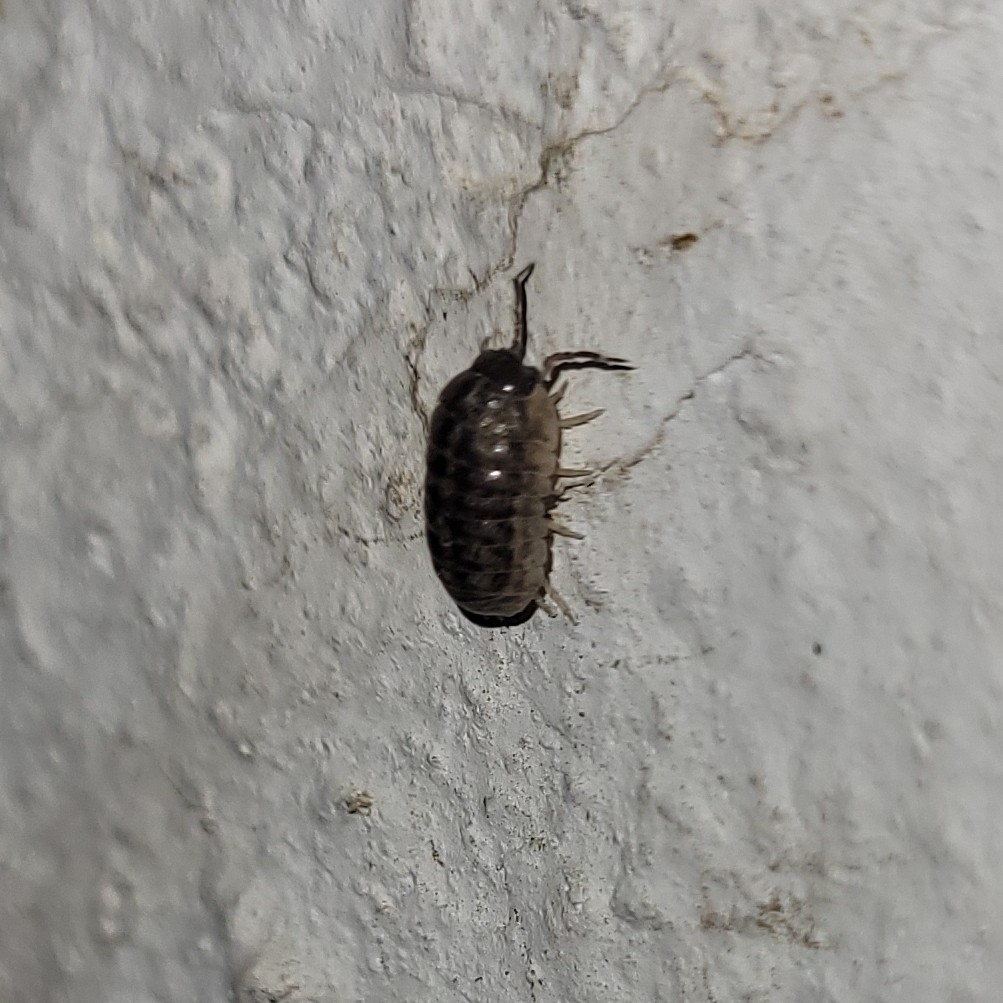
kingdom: Animalia
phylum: Arthropoda
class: Malacostraca
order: Isopoda
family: Armadillidiidae
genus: Armadillidium
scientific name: Armadillidium vulgare
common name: Common pill woodlouse
